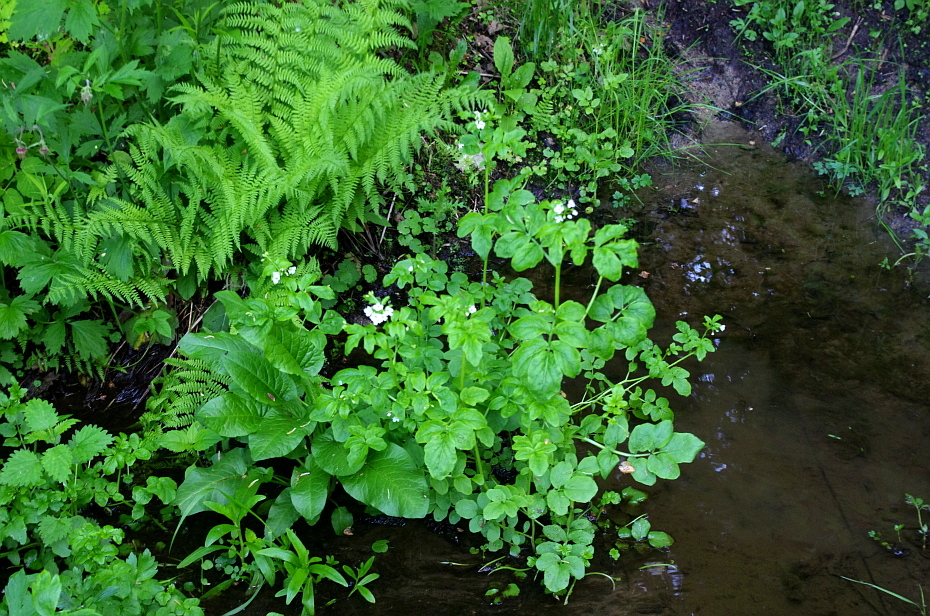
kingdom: Plantae
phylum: Tracheophyta
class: Polypodiopsida
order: Polypodiales
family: Athyriaceae
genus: Athyrium
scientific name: Athyrium filix-femina
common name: Lady fern
